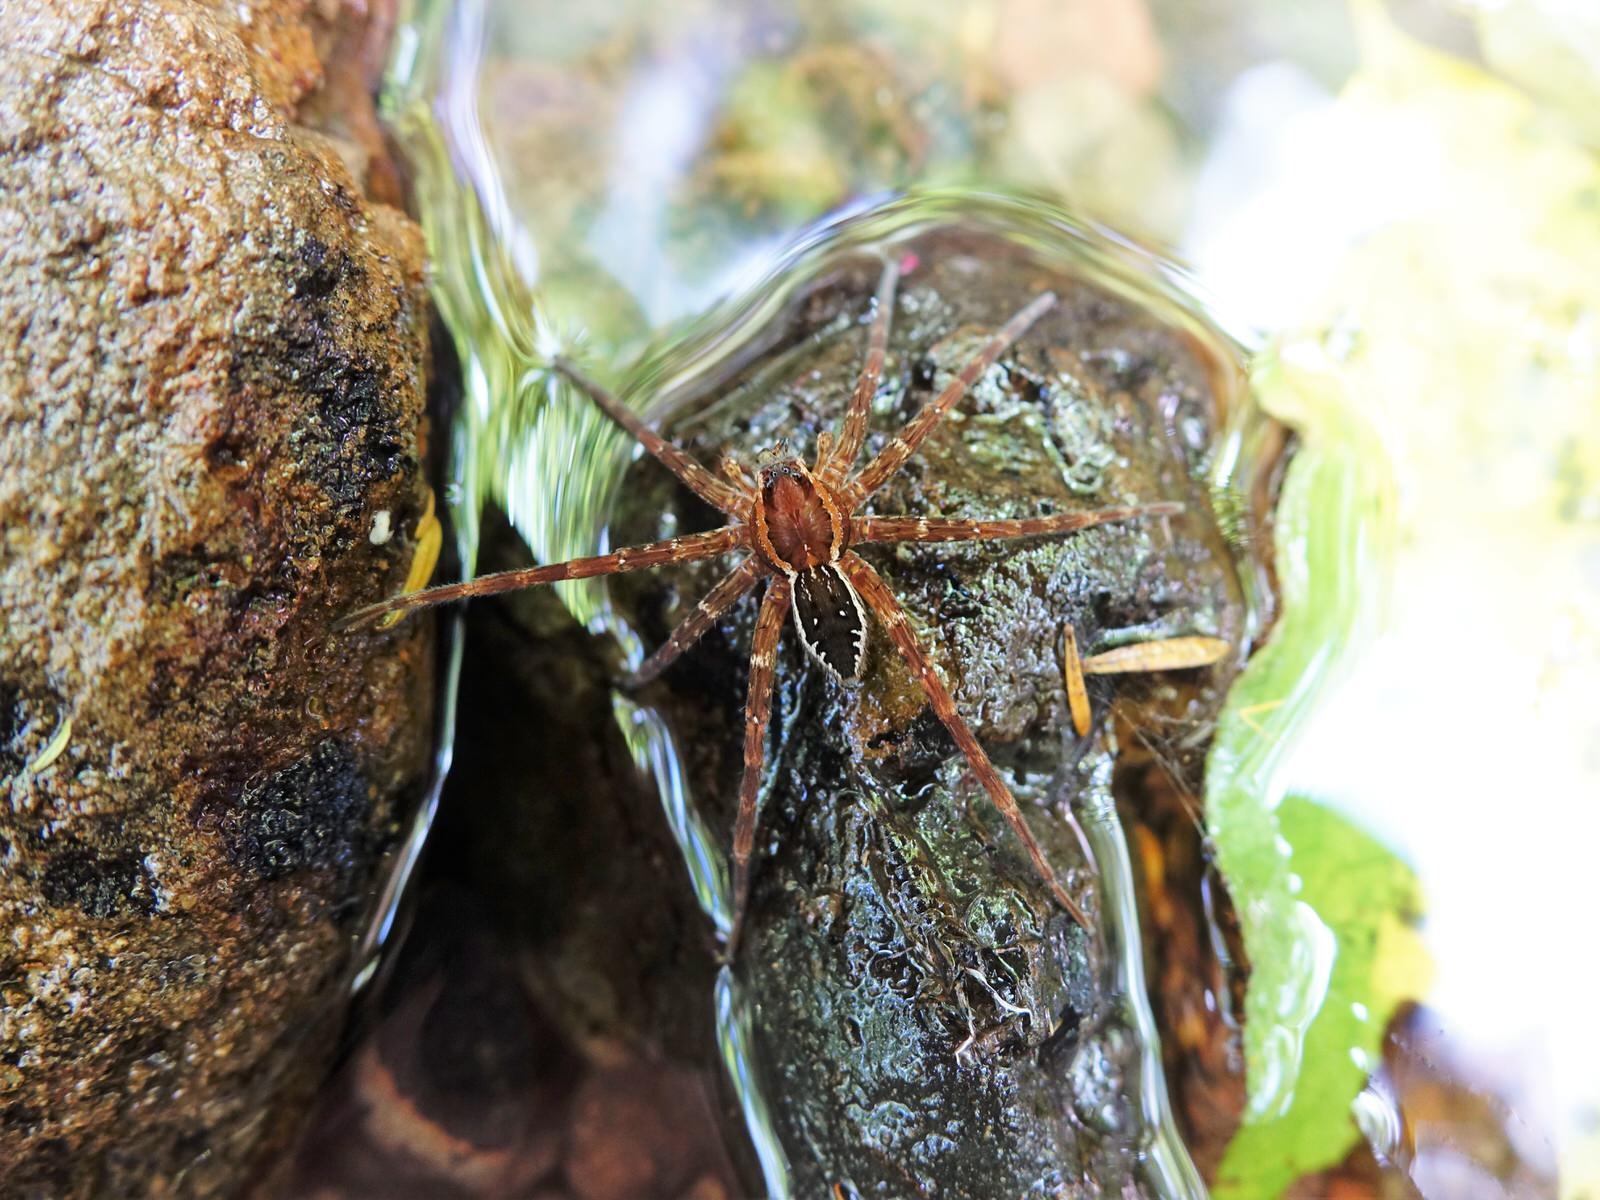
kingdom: Animalia
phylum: Arthropoda
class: Arachnida
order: Araneae
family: Pisauridae
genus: Dolomedes
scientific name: Dolomedes dondalei
